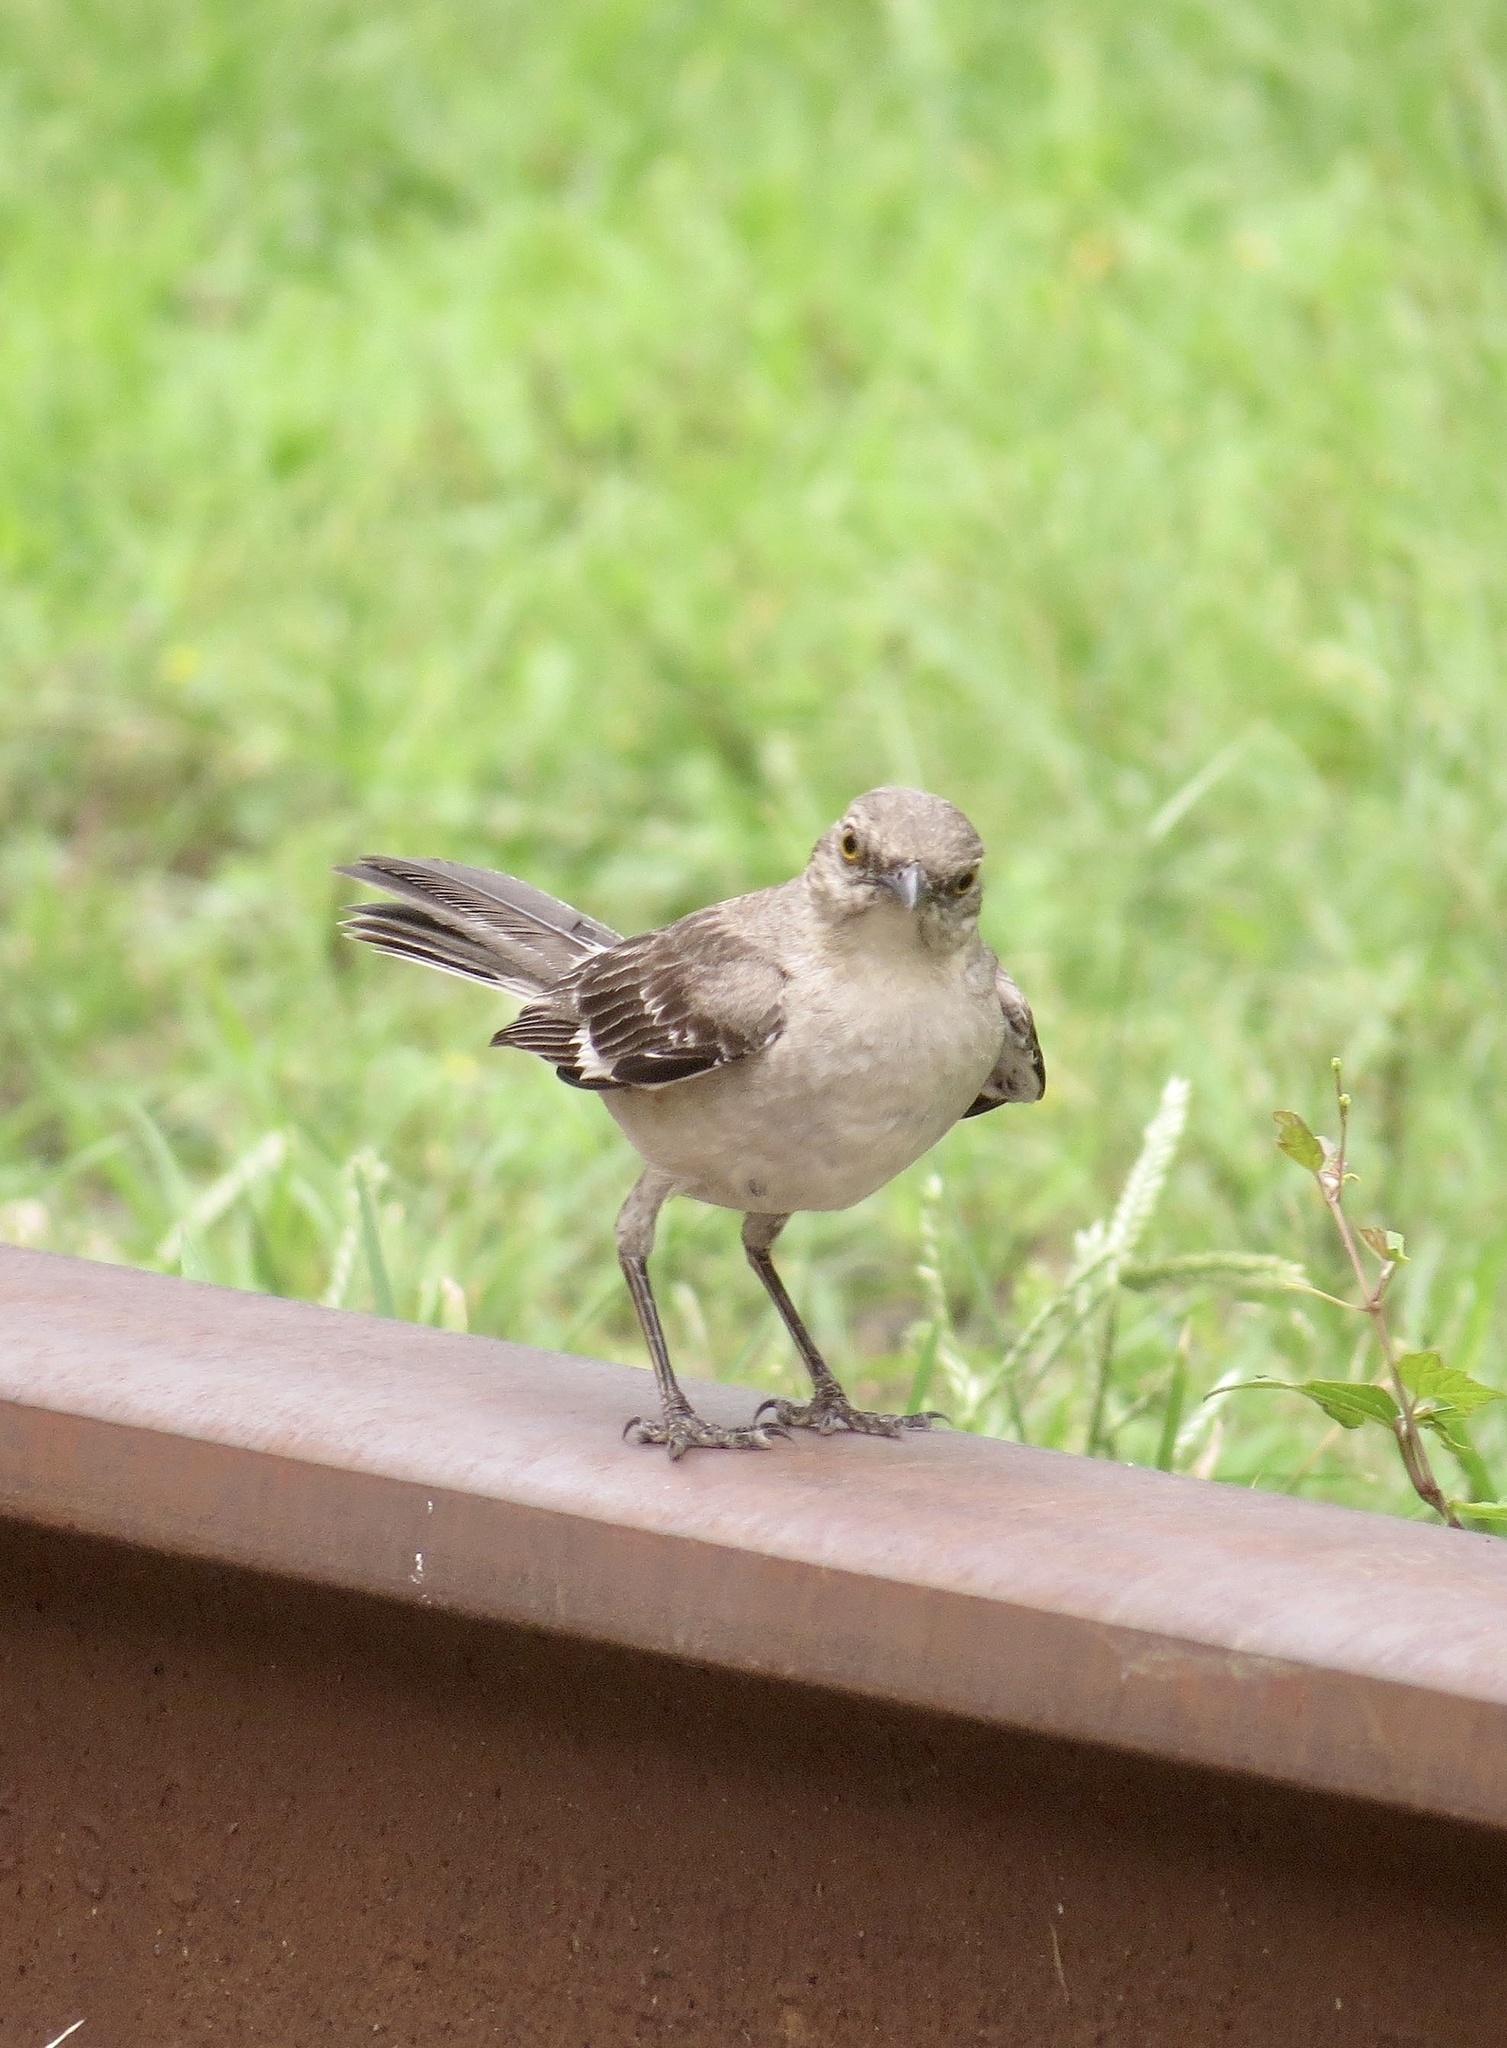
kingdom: Animalia
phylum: Chordata
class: Aves
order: Passeriformes
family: Mimidae
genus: Mimus
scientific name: Mimus polyglottos
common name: Northern mockingbird
